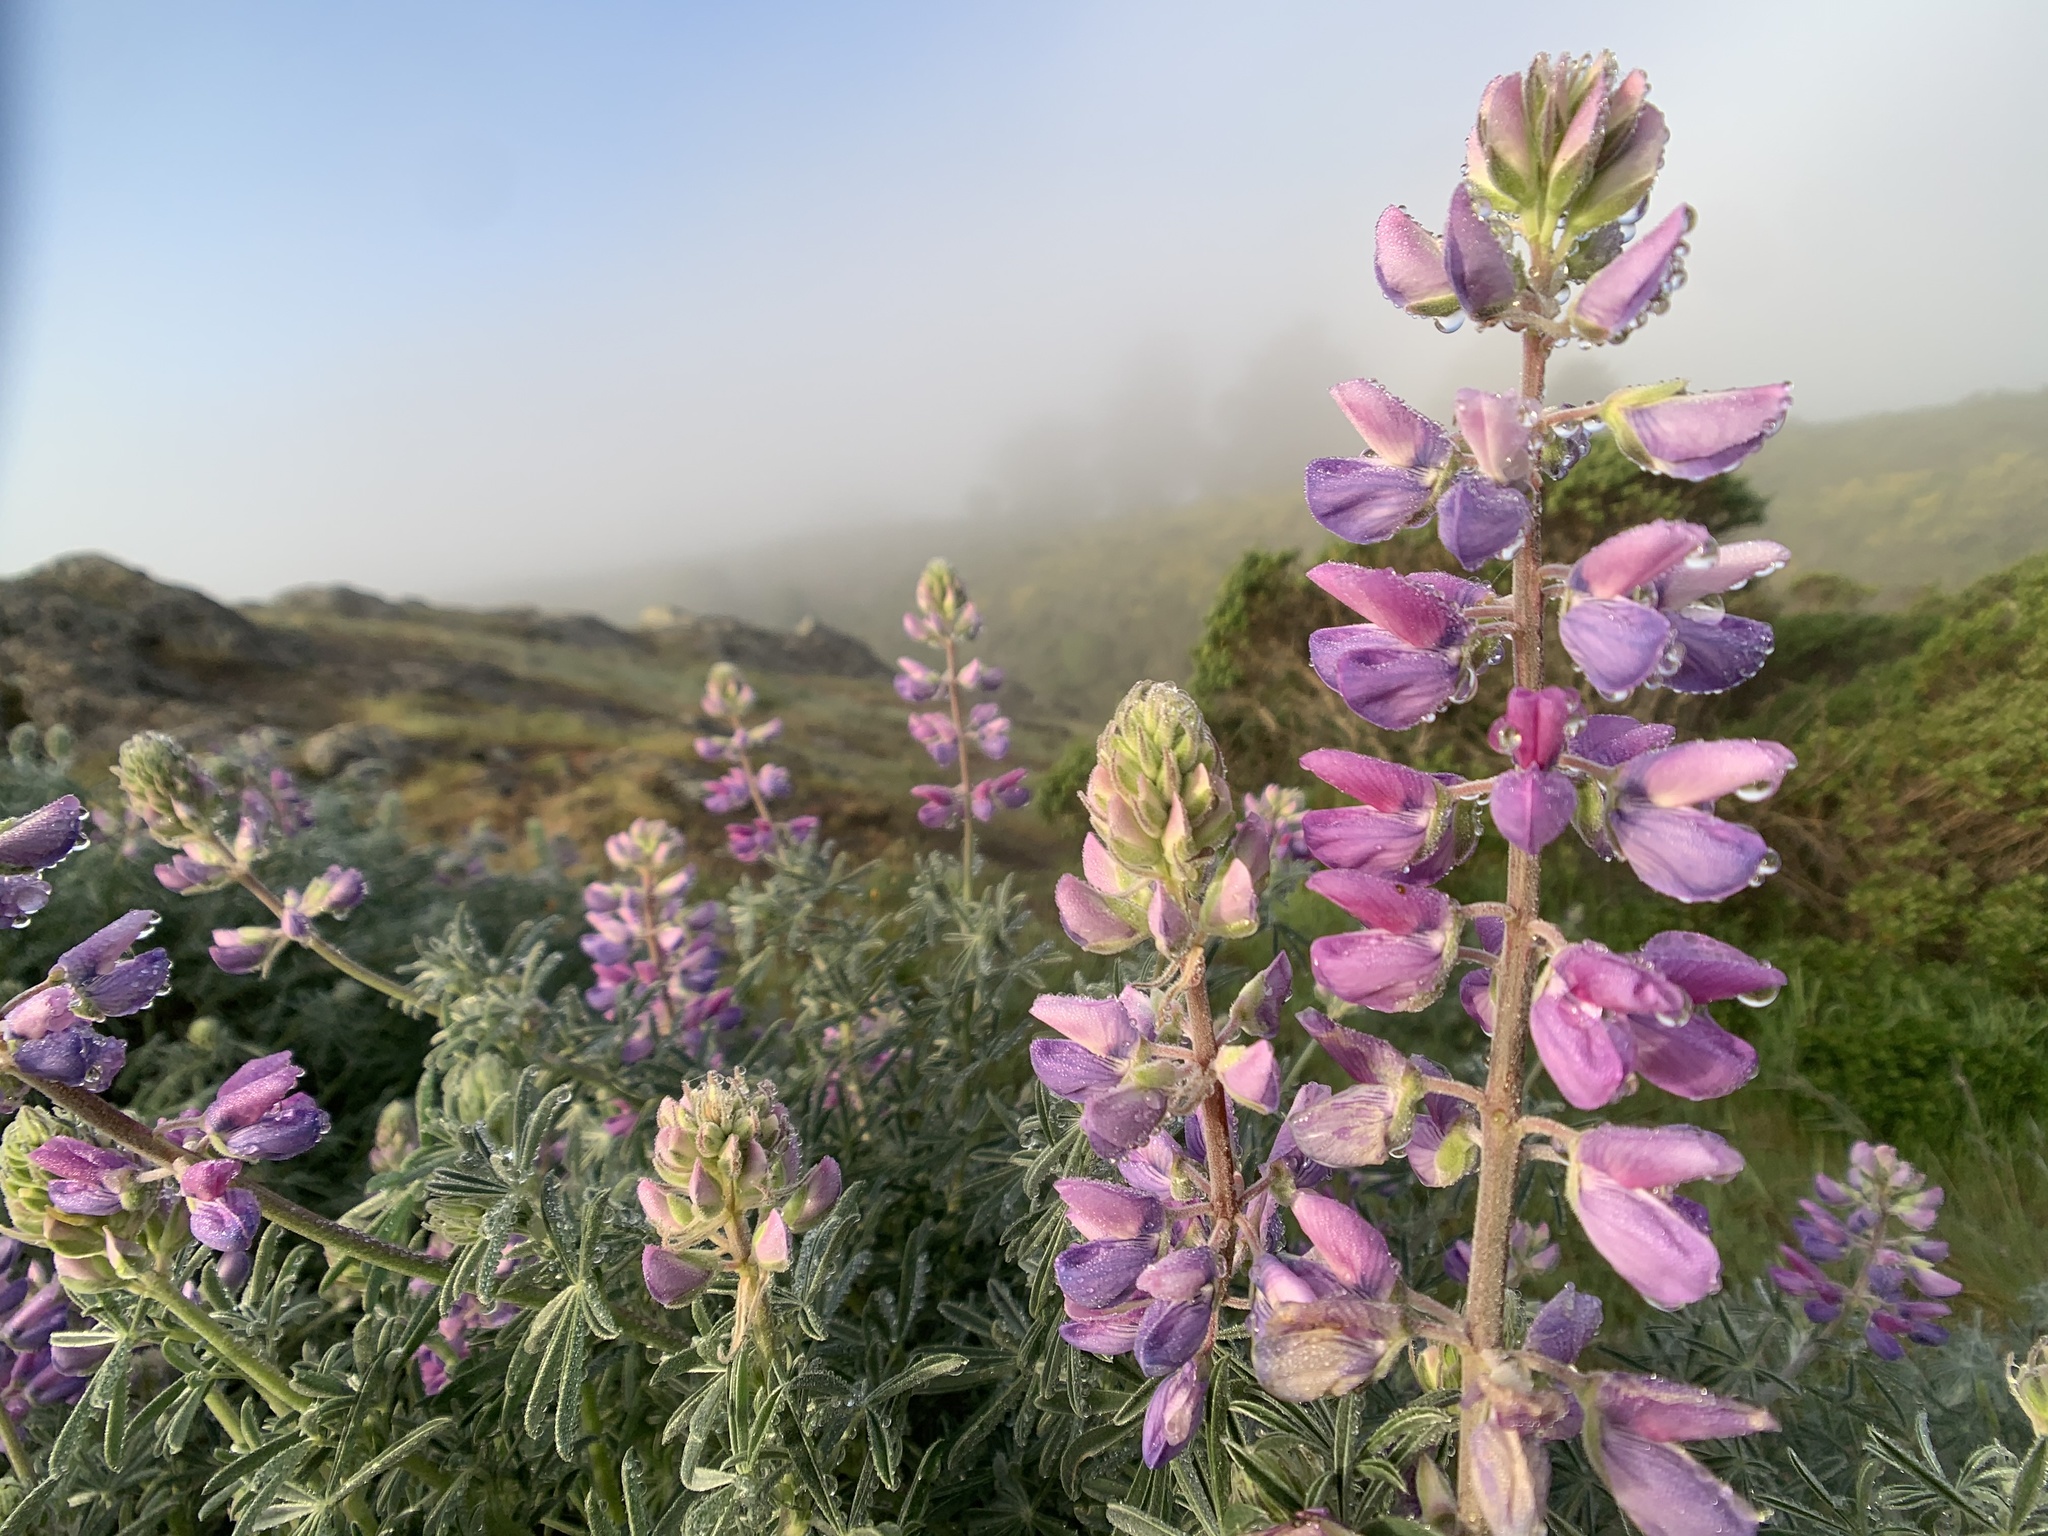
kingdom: Plantae
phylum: Tracheophyta
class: Magnoliopsida
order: Fabales
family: Fabaceae
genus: Lupinus
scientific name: Lupinus albifrons
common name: Foothill lupine
